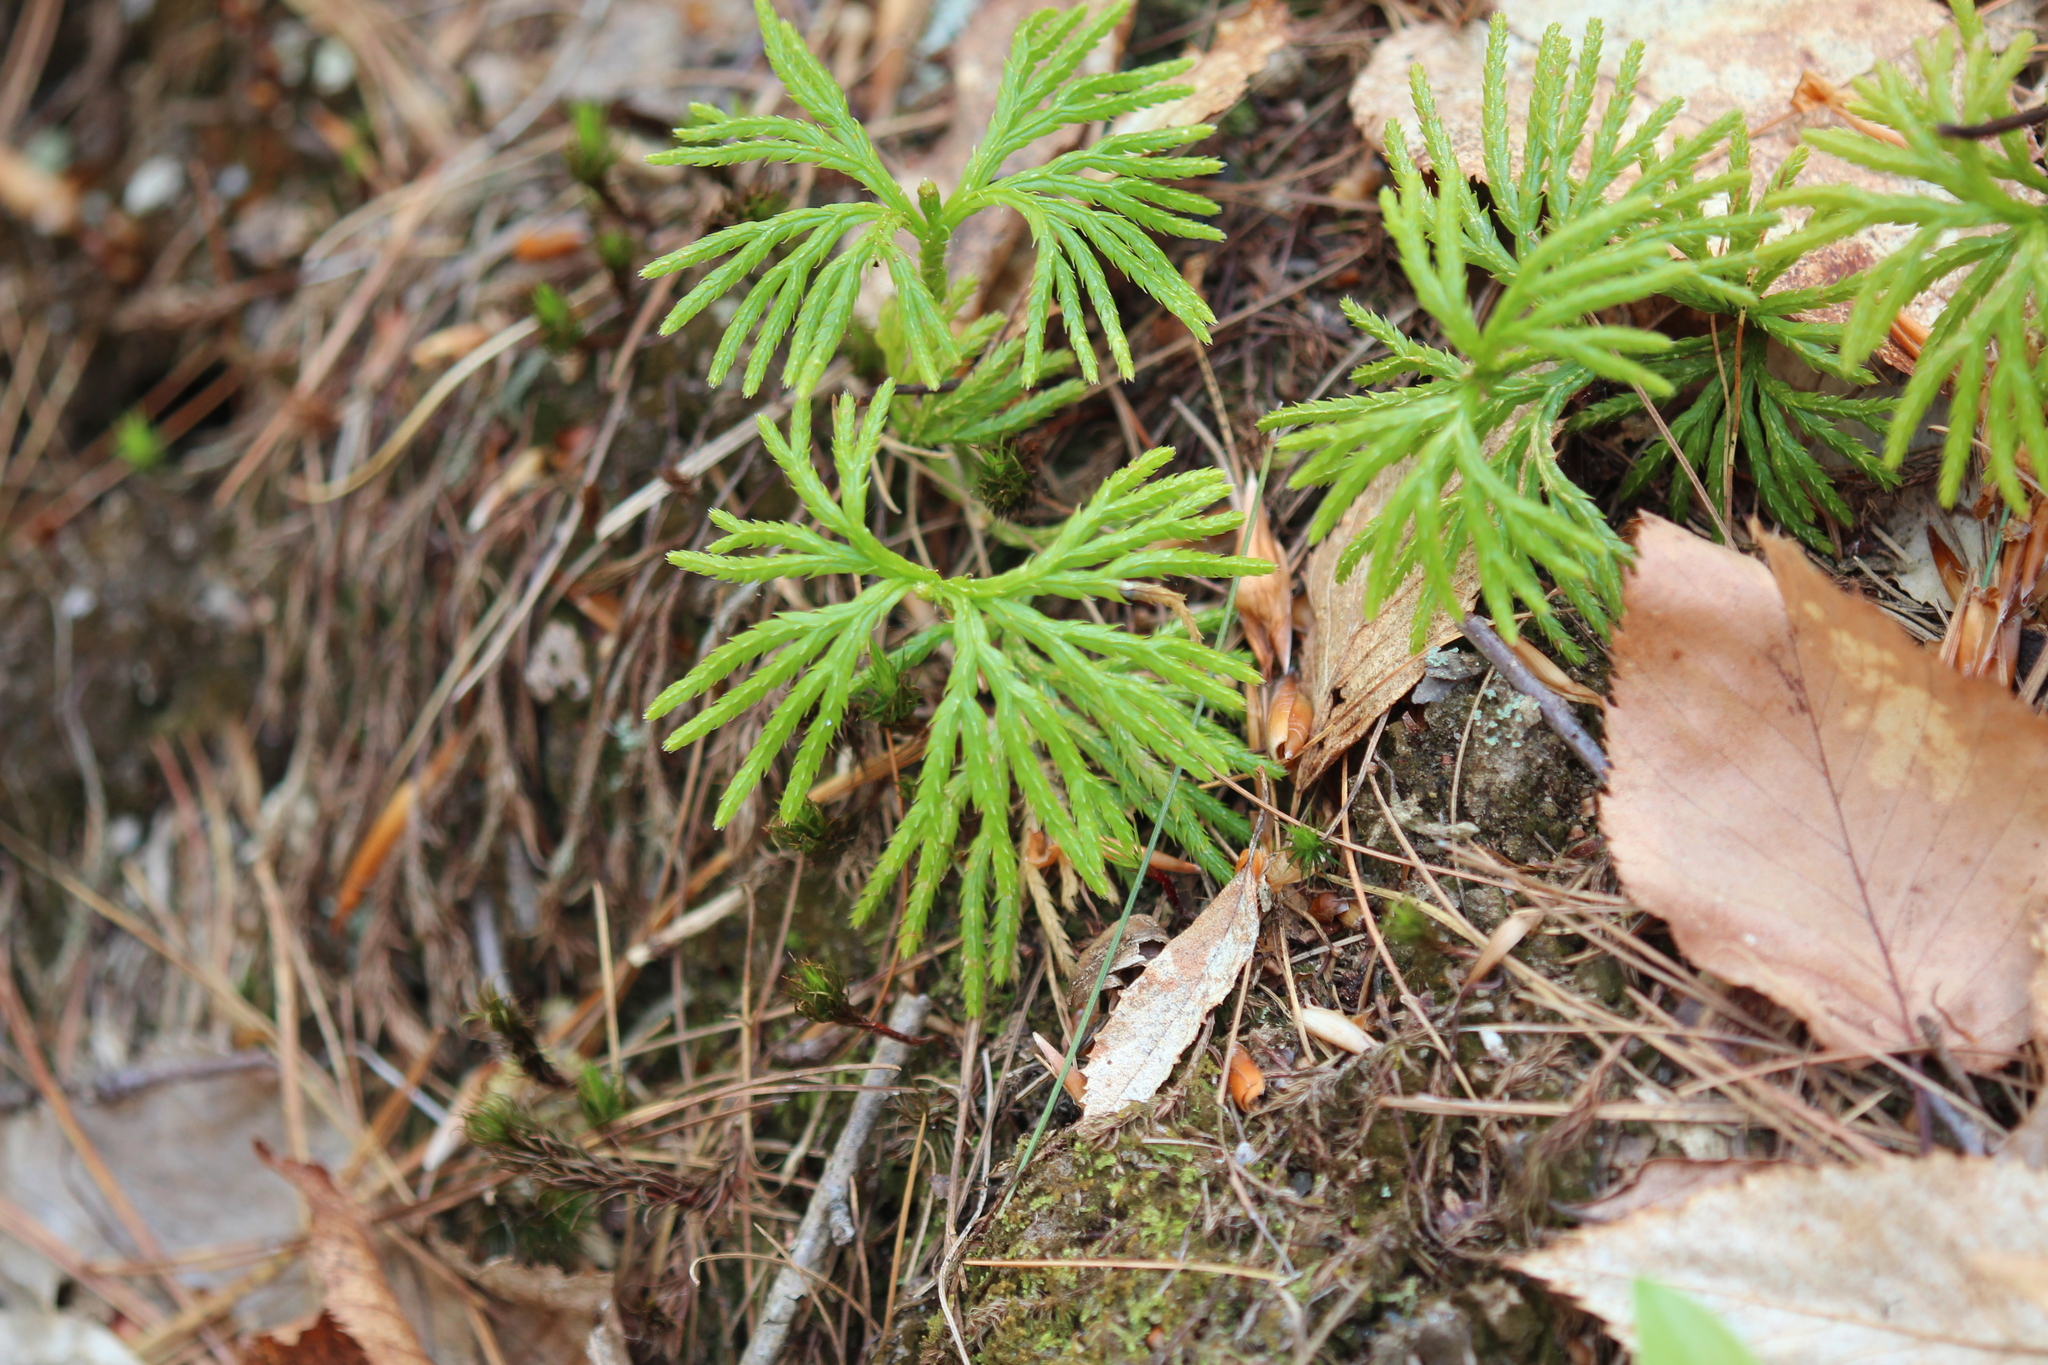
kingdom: Plantae
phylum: Tracheophyta
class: Lycopodiopsida
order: Lycopodiales
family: Lycopodiaceae
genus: Diphasiastrum
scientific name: Diphasiastrum digitatum
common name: Southern running-pine
